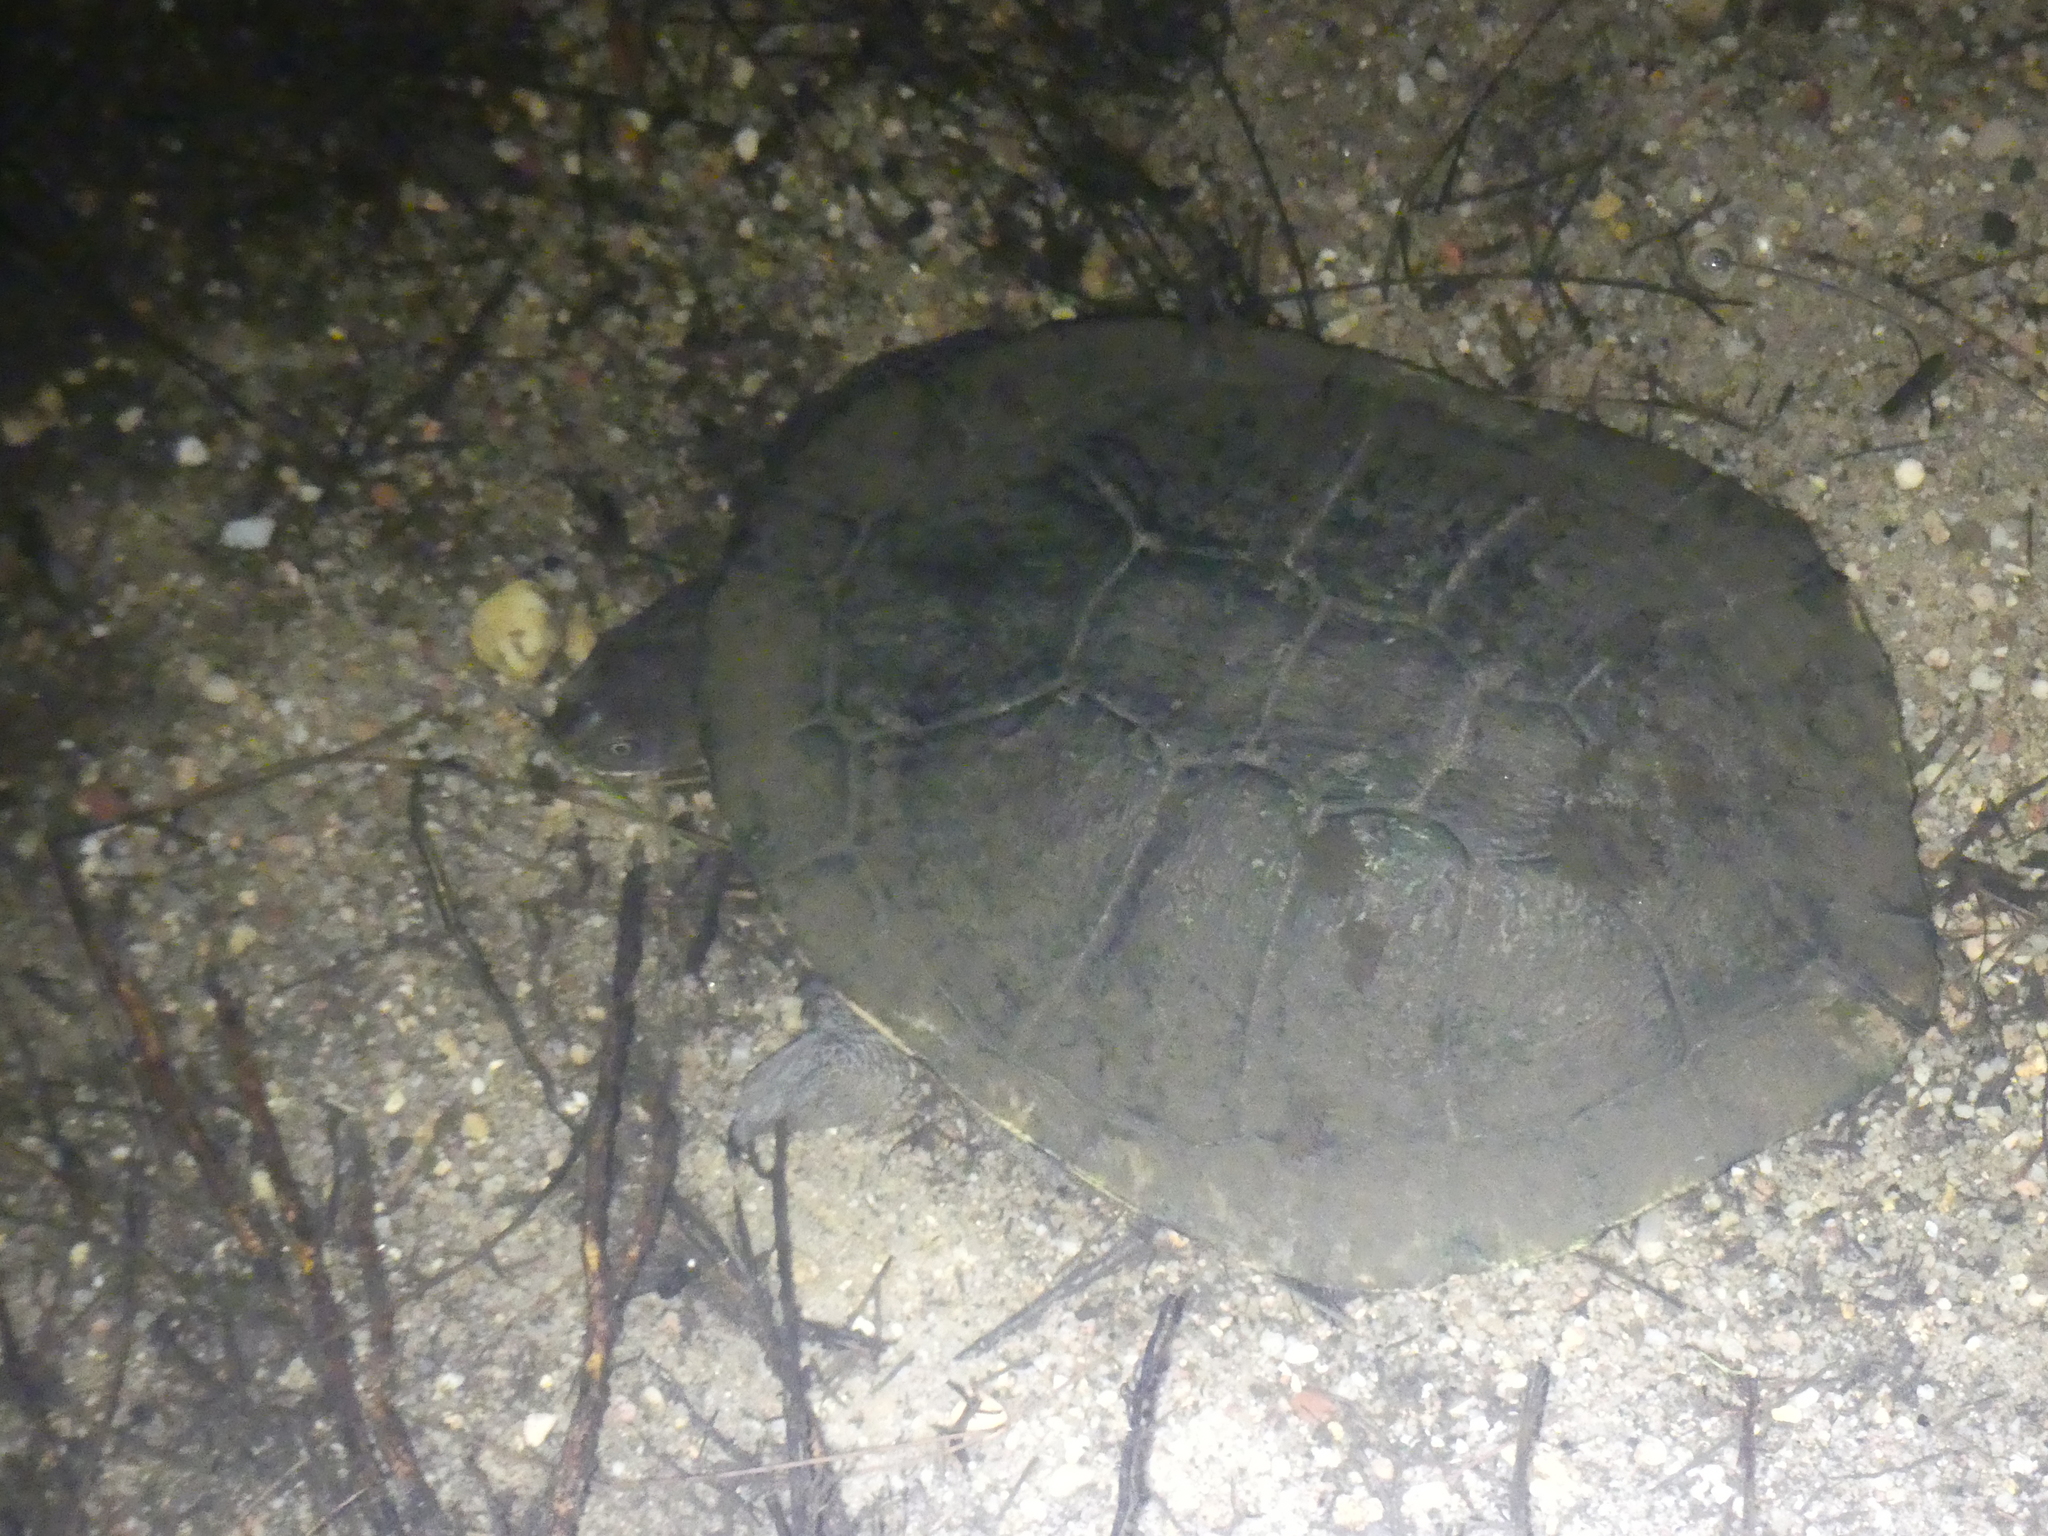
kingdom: Animalia
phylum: Chordata
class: Testudines
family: Chelidae
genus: Chelodina
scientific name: Chelodina longicollis
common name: Eastern snake-necked turtle
